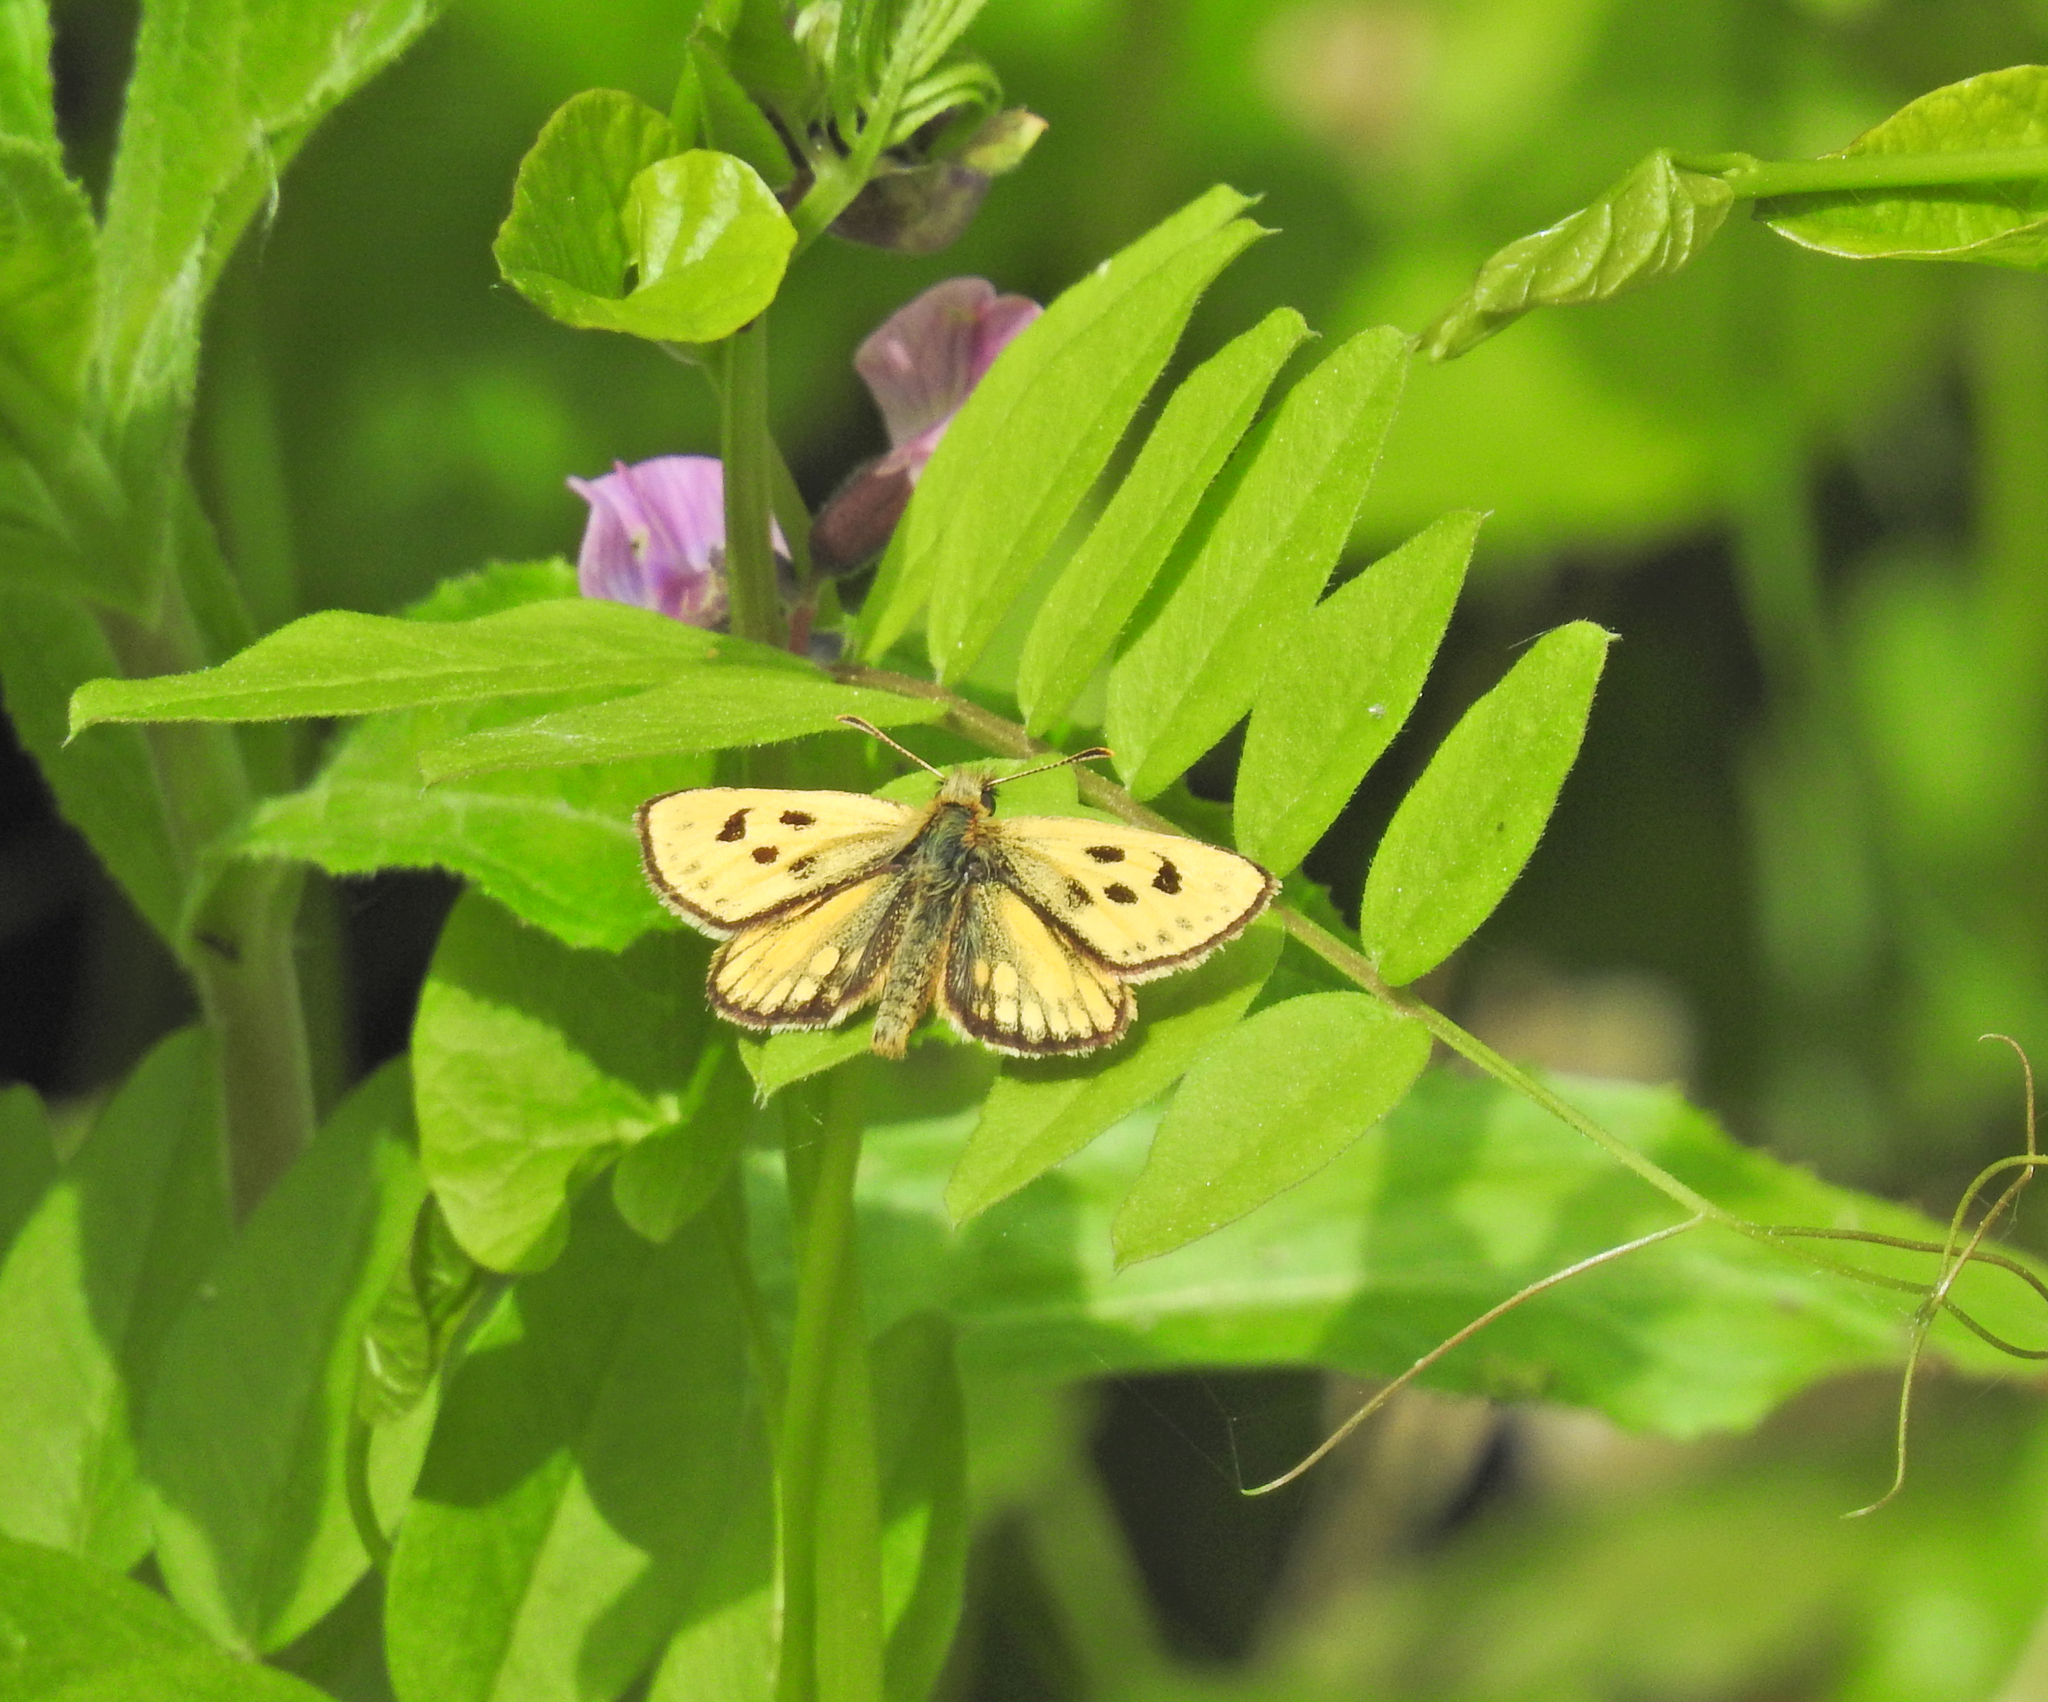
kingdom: Animalia
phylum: Arthropoda
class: Insecta
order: Lepidoptera
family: Hesperiidae
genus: Carterocephalus
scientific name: Carterocephalus silvicola
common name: Northern chequered skipper
